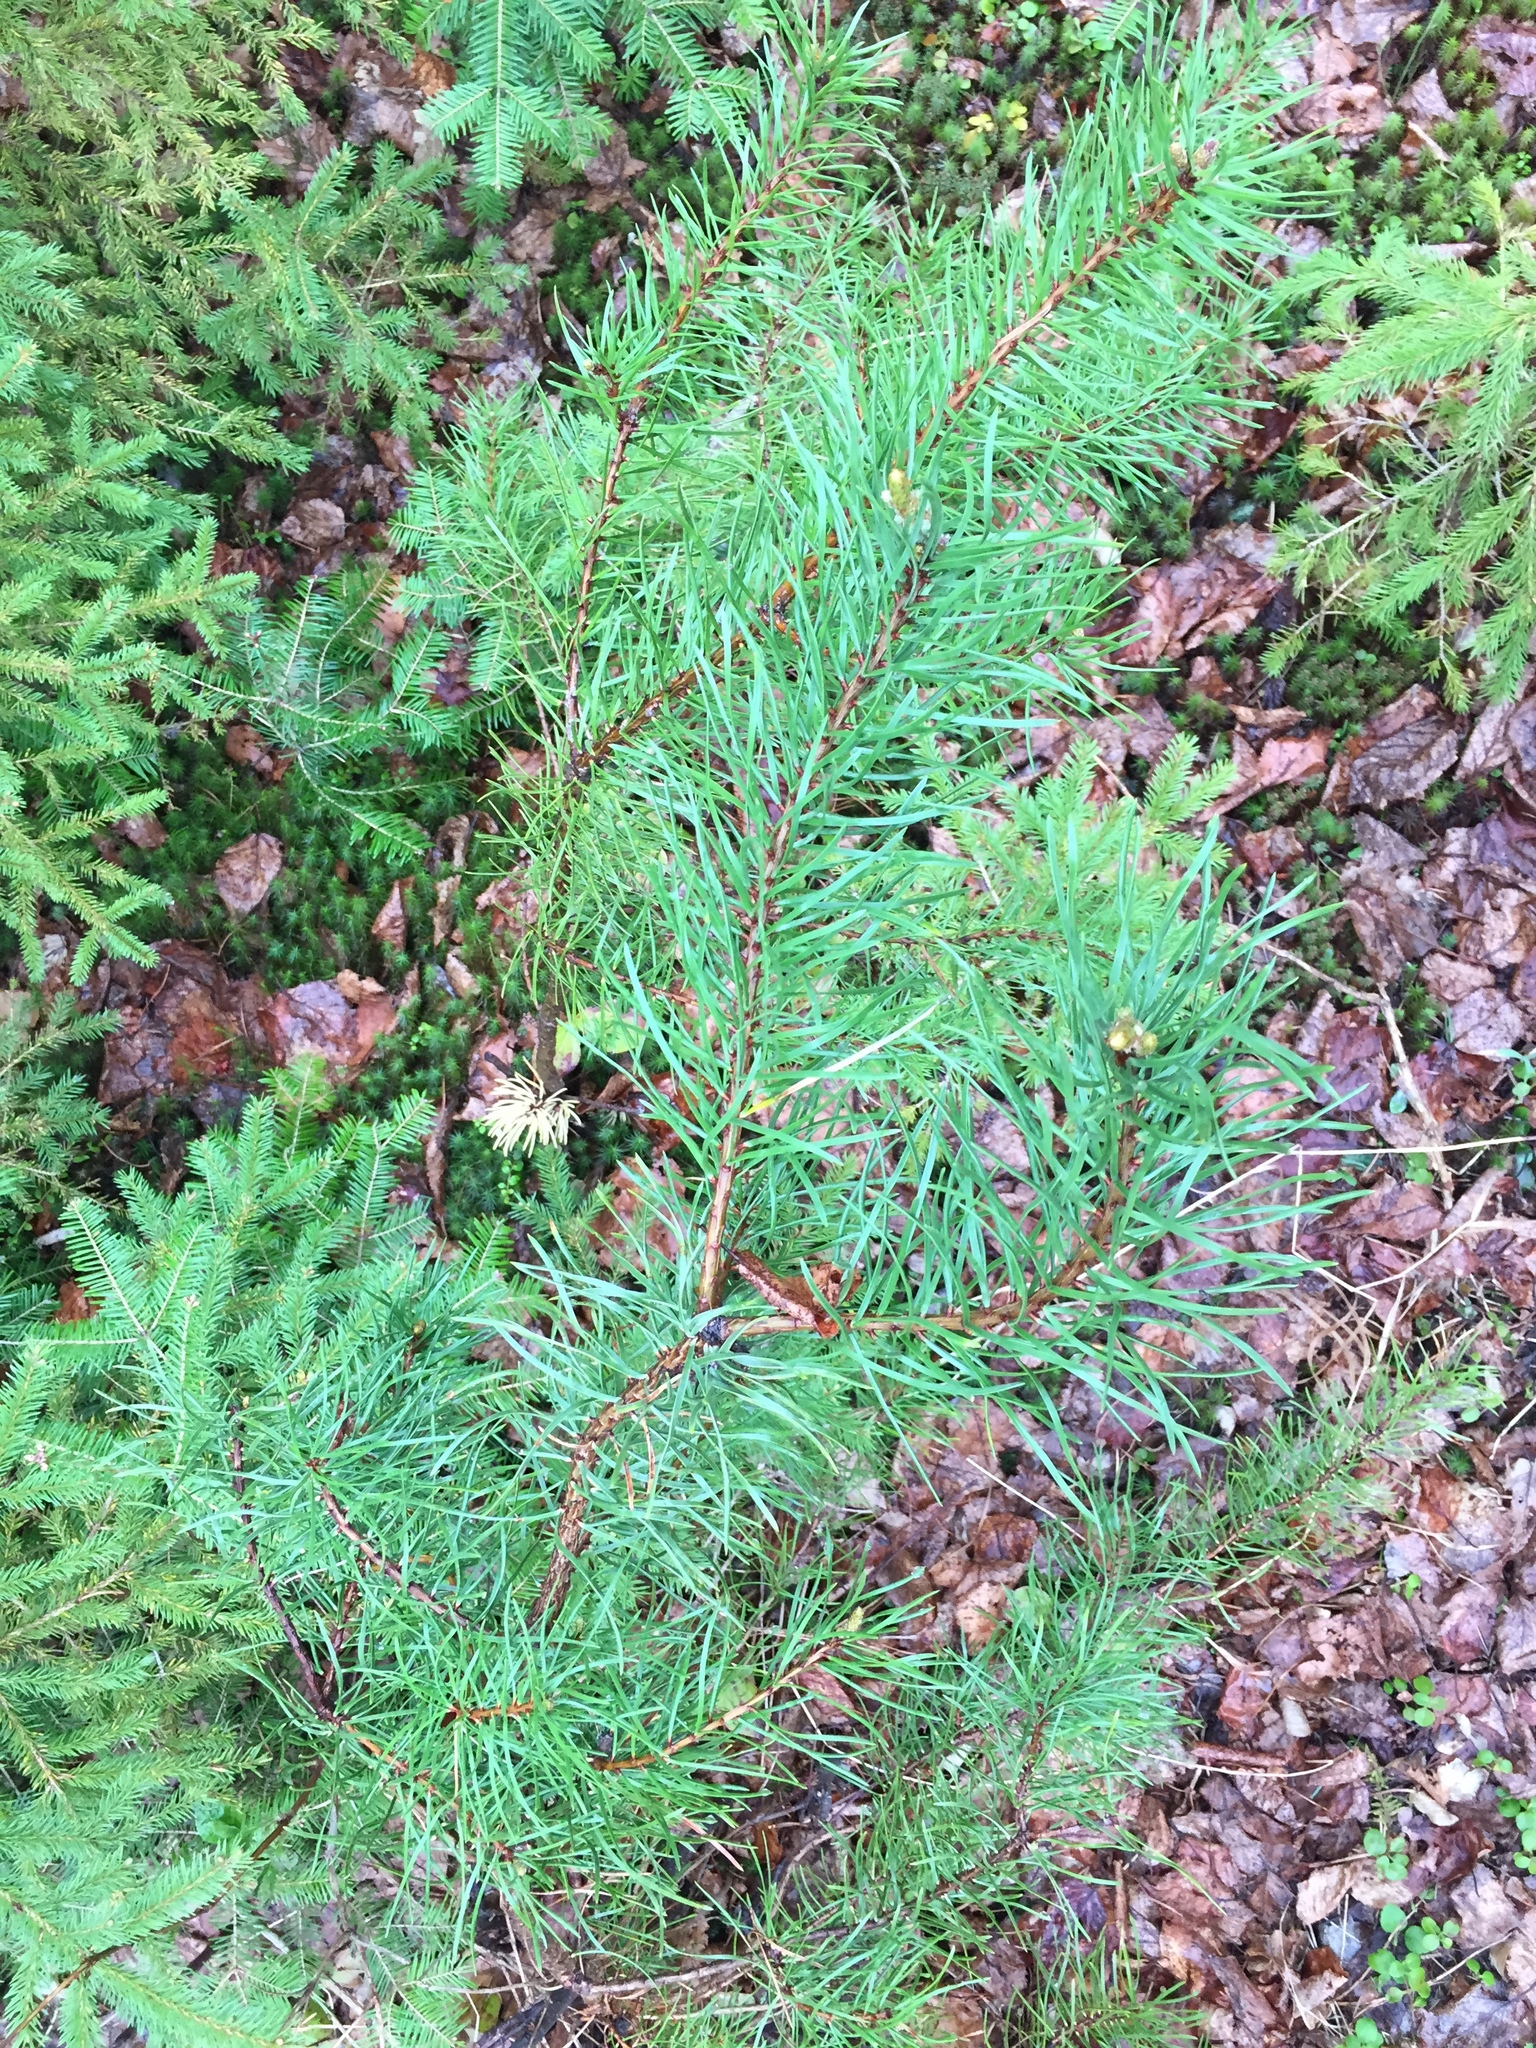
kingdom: Plantae
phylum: Tracheophyta
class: Pinopsida
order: Pinales
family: Pinaceae
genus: Pinus
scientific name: Pinus banksiana
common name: Jack pine
